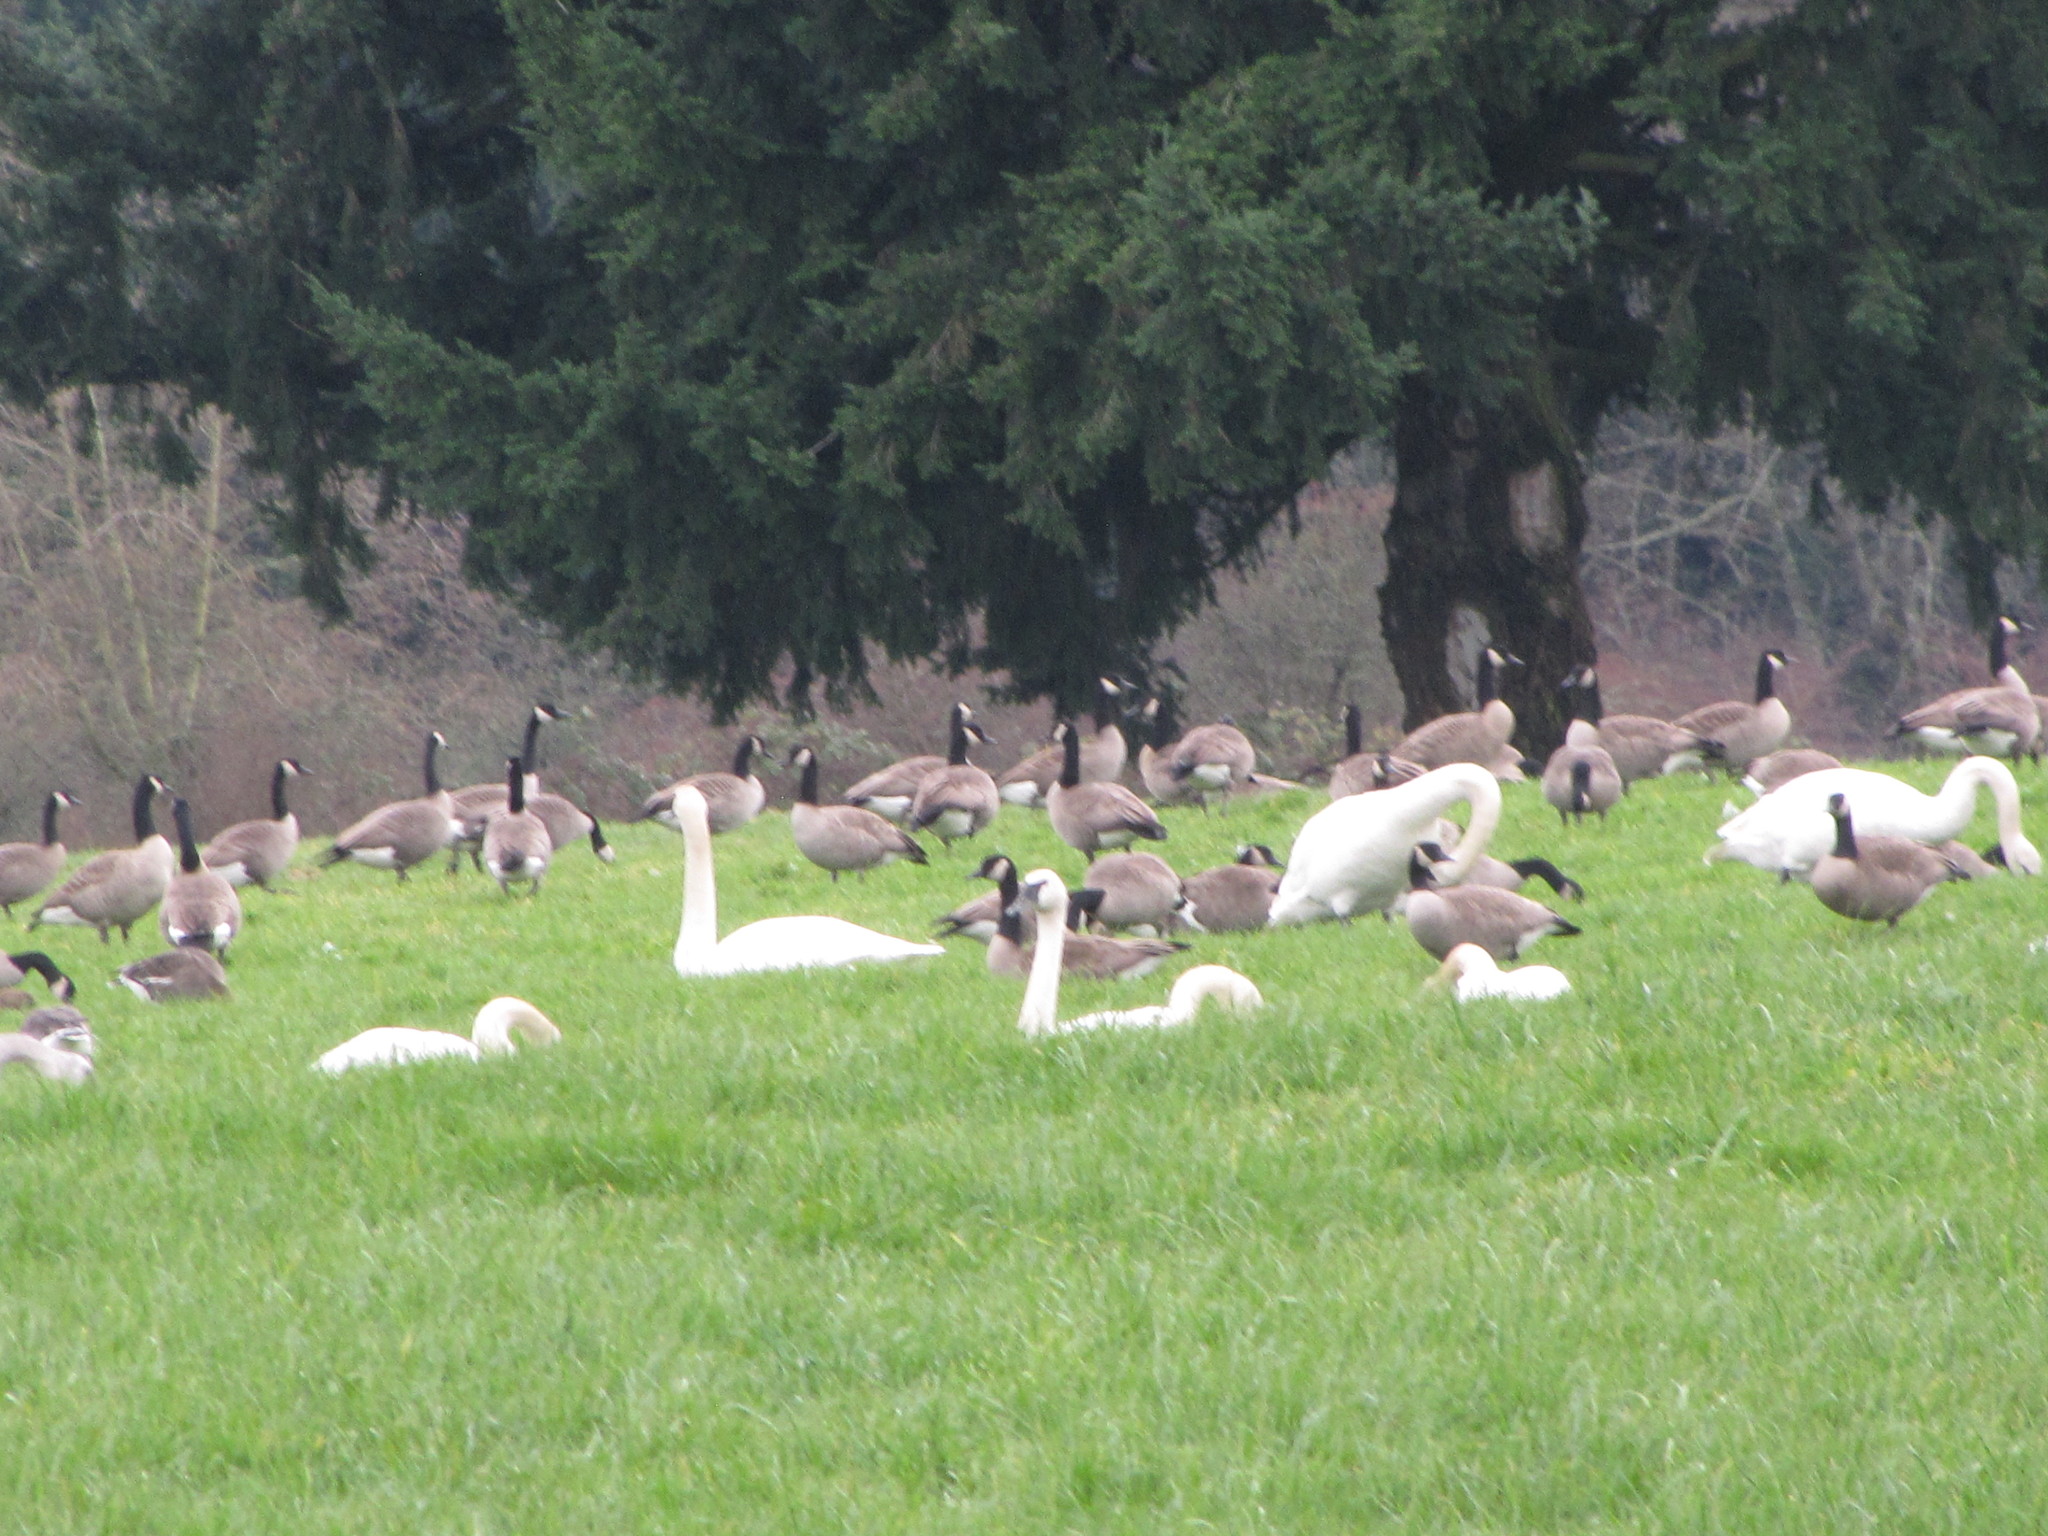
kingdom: Animalia
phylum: Chordata
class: Aves
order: Anseriformes
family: Anatidae
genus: Cygnus
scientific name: Cygnus buccinator
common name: Trumpeter swan
